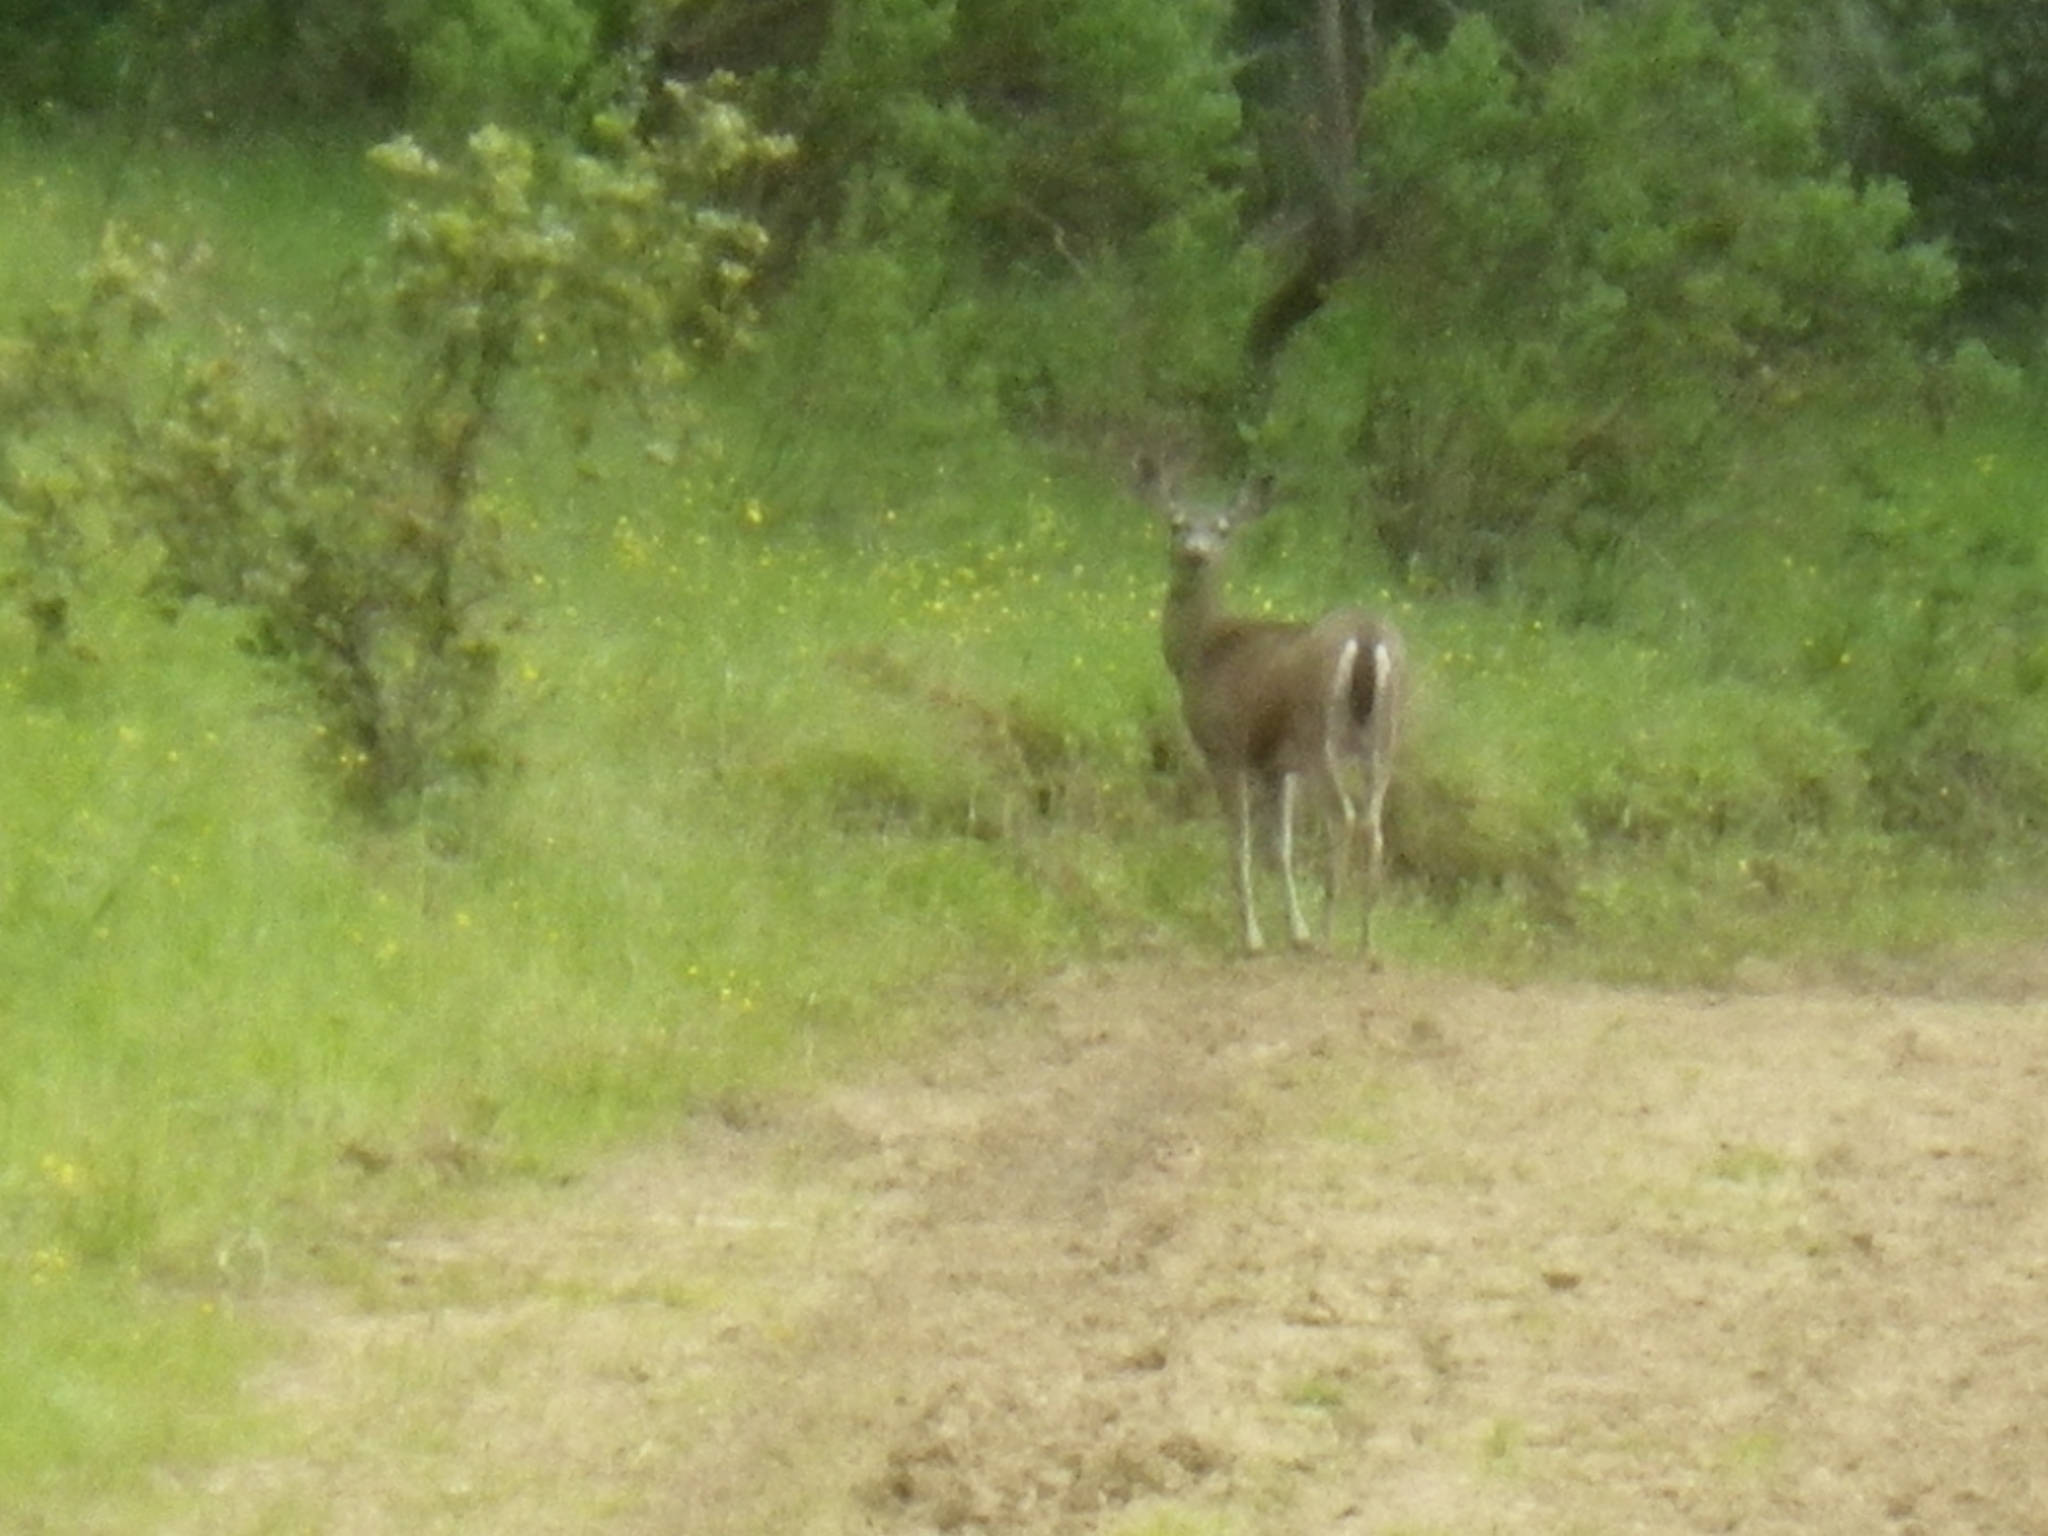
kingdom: Animalia
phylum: Chordata
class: Mammalia
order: Artiodactyla
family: Cervidae
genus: Odocoileus
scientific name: Odocoileus hemionus
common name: Mule deer
